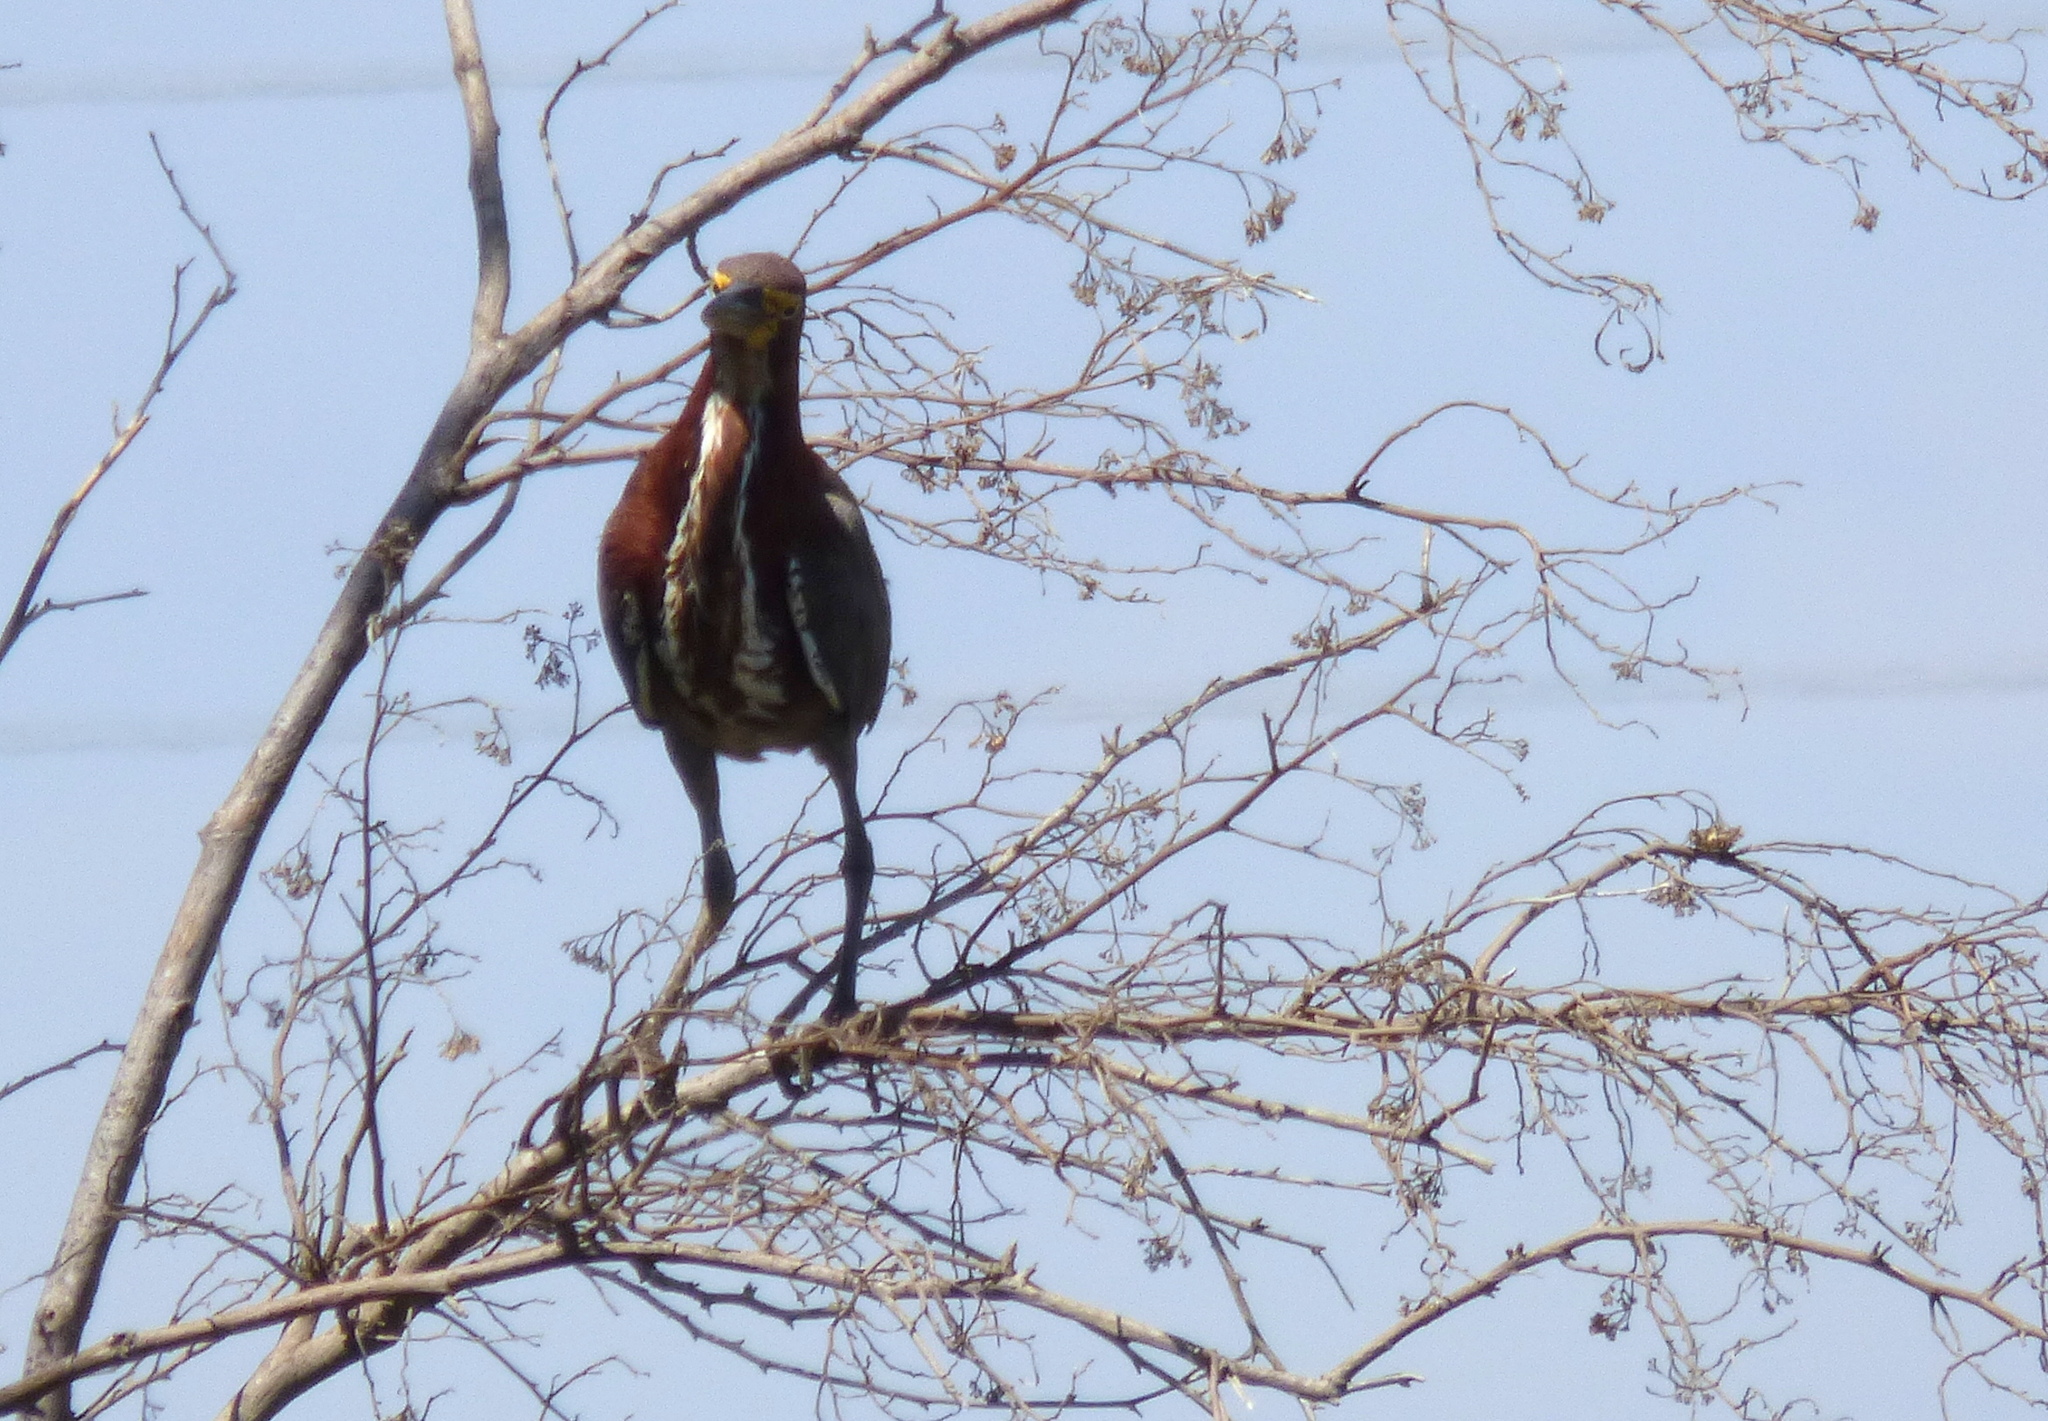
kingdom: Animalia
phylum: Chordata
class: Aves
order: Pelecaniformes
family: Ardeidae
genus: Tigrisoma
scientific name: Tigrisoma lineatum
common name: Rufescent tiger-heron
